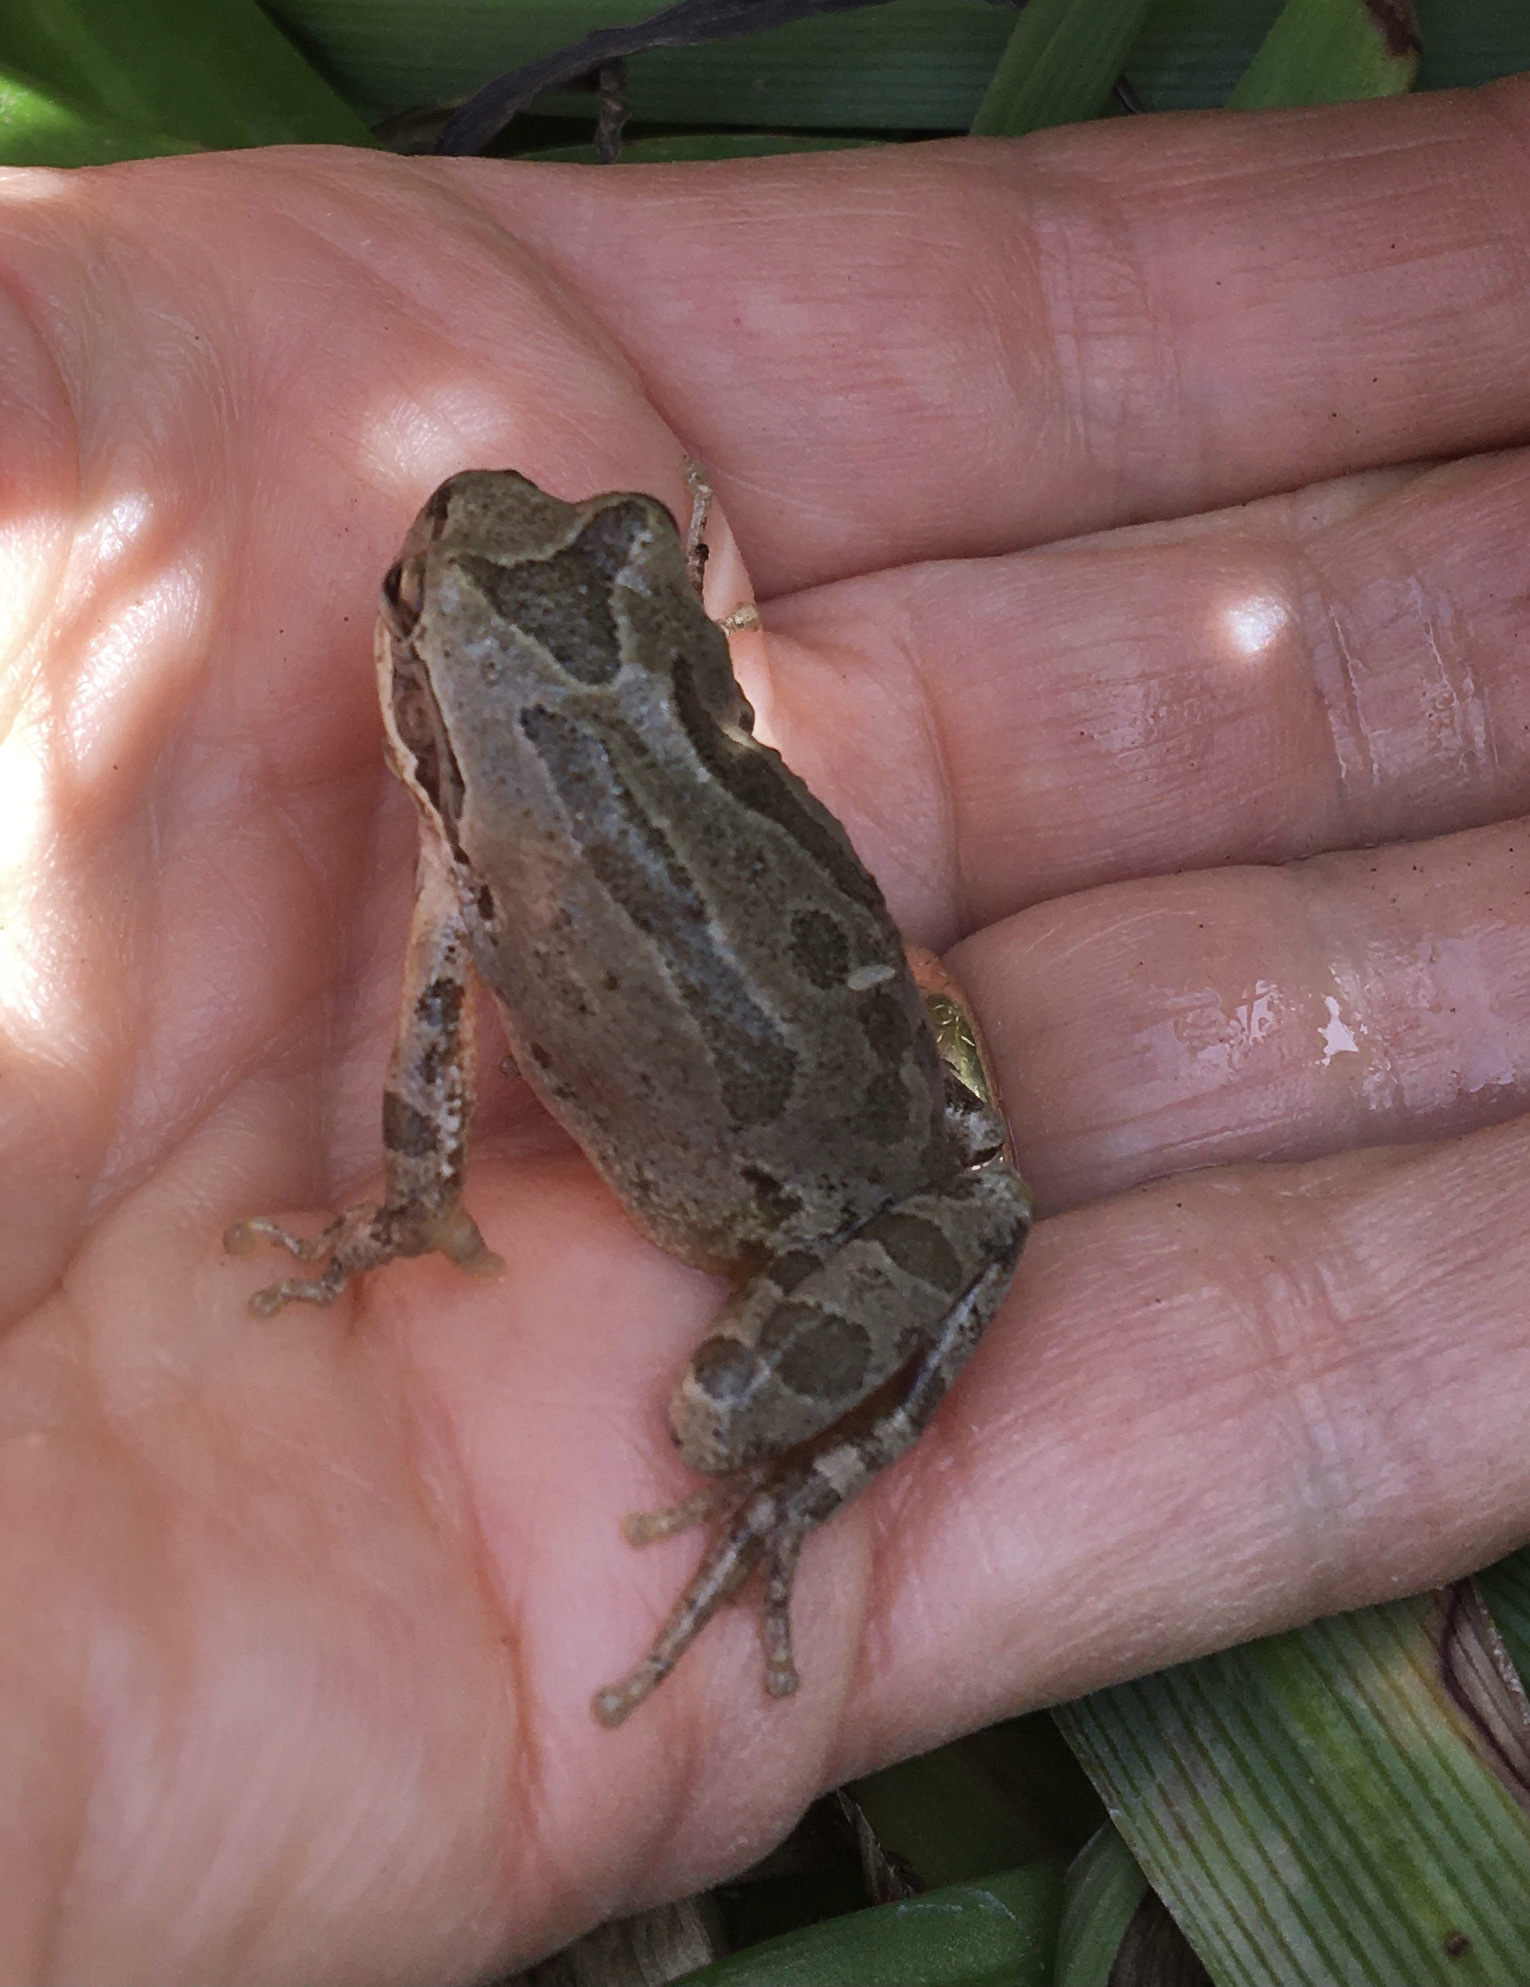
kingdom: Animalia
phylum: Chordata
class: Amphibia
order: Anura
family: Hylidae
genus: Pseudacris
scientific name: Pseudacris regilla
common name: Pacific chorus frog
